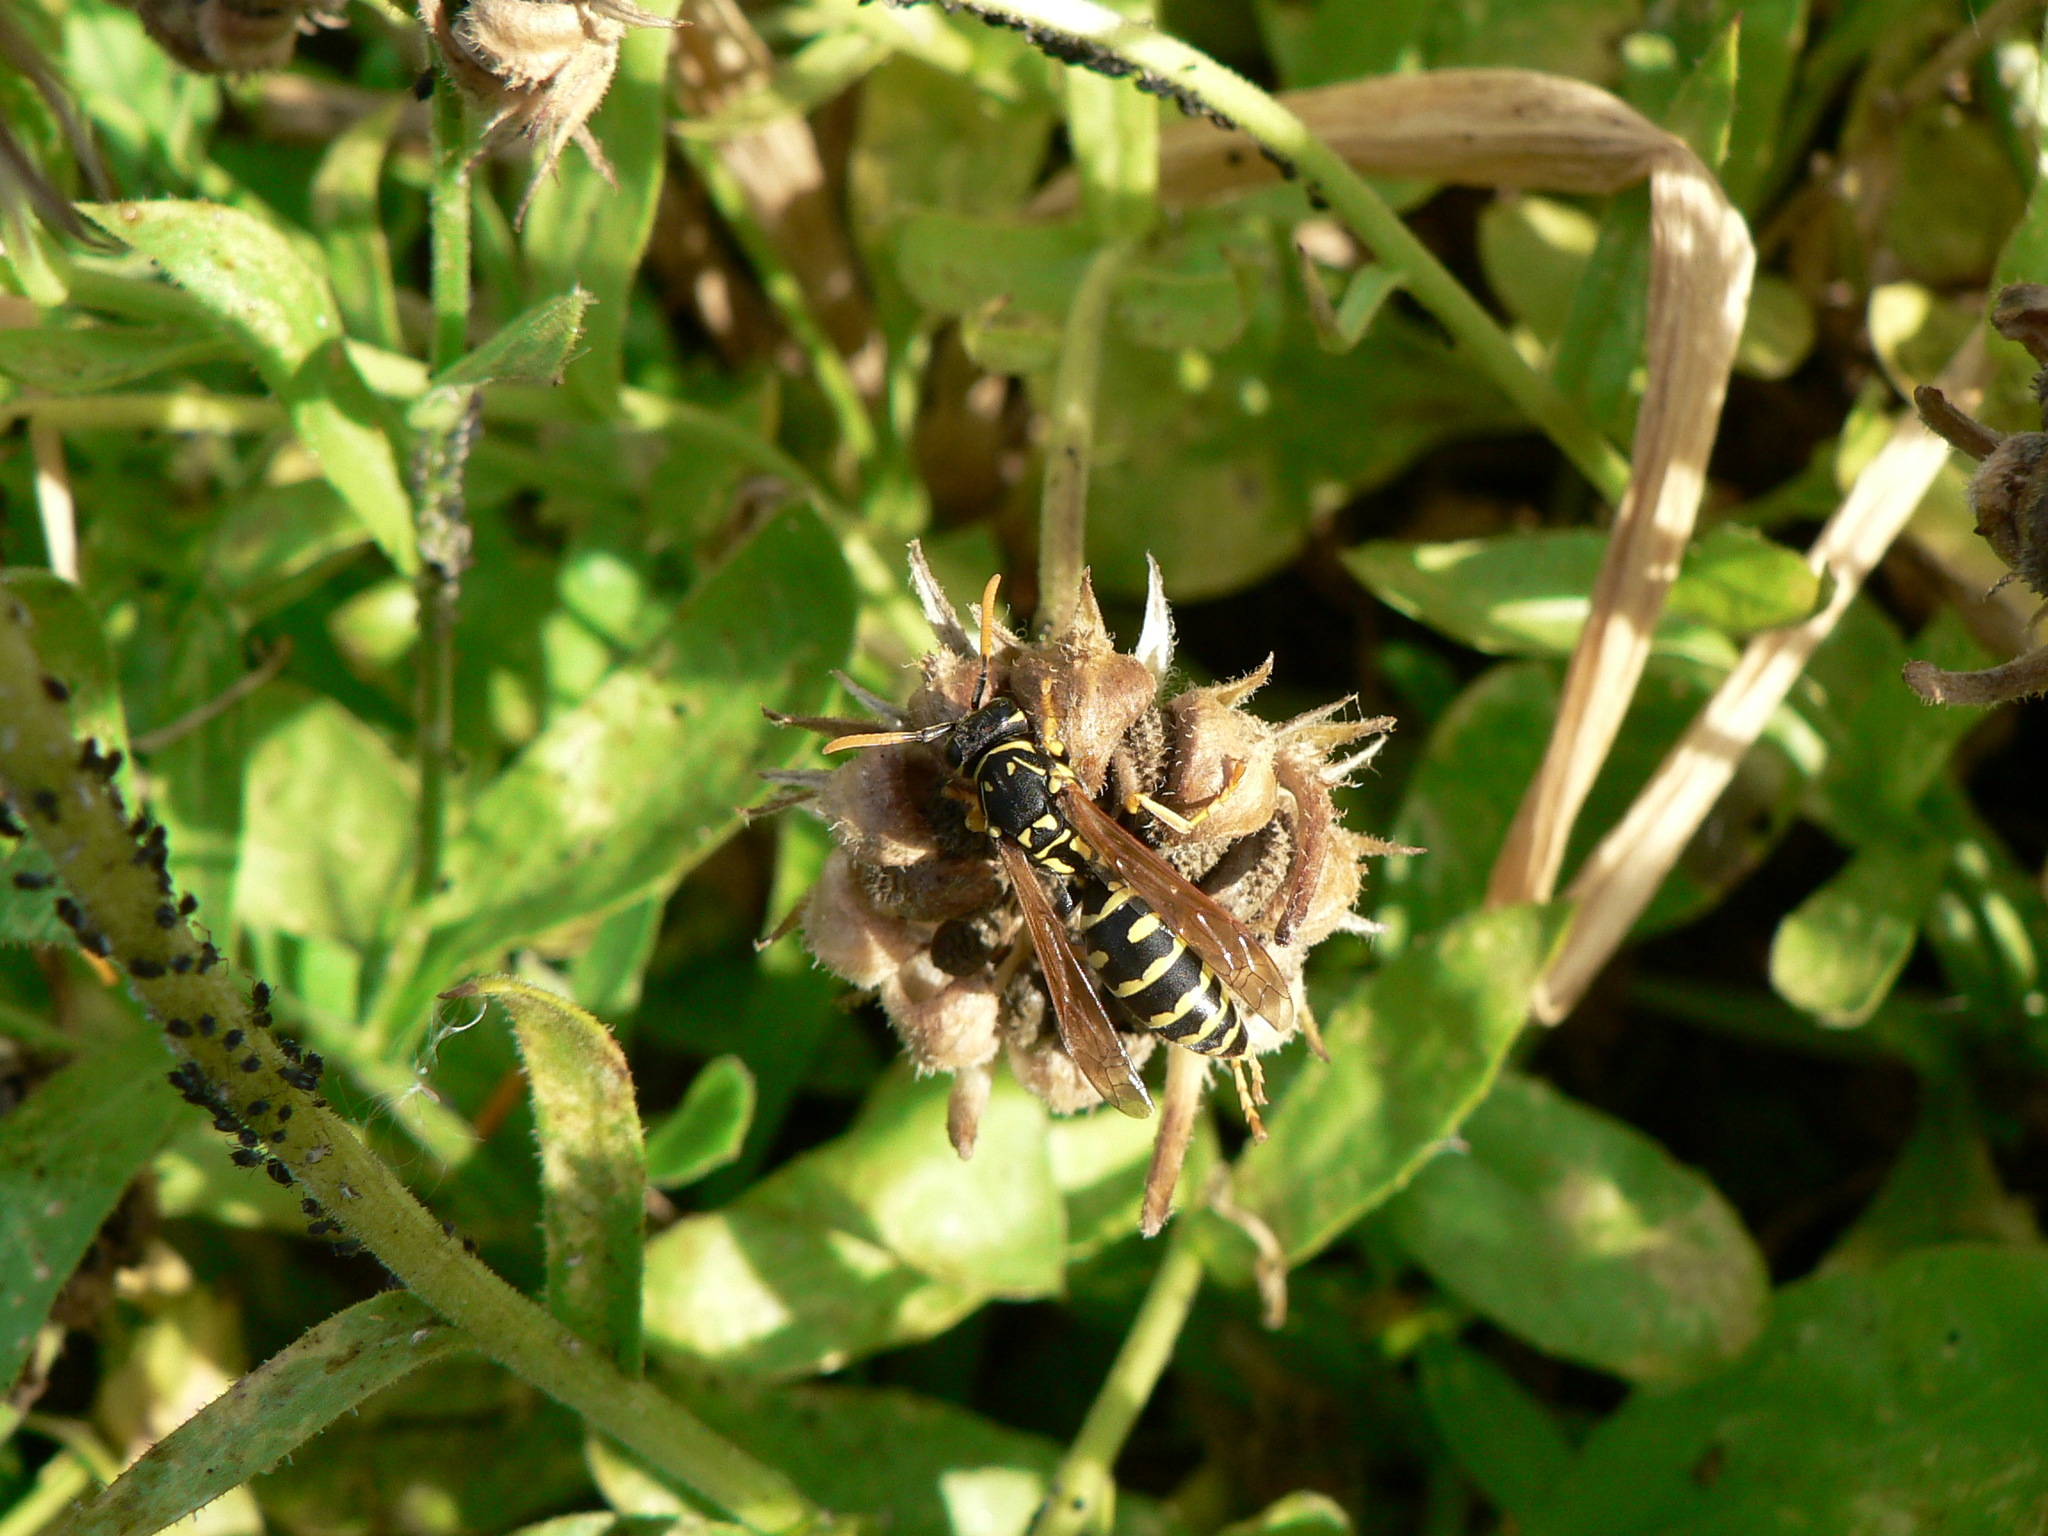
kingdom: Animalia
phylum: Arthropoda
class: Insecta
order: Hymenoptera
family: Eumenidae
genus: Polistes
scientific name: Polistes dominula
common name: Paper wasp
